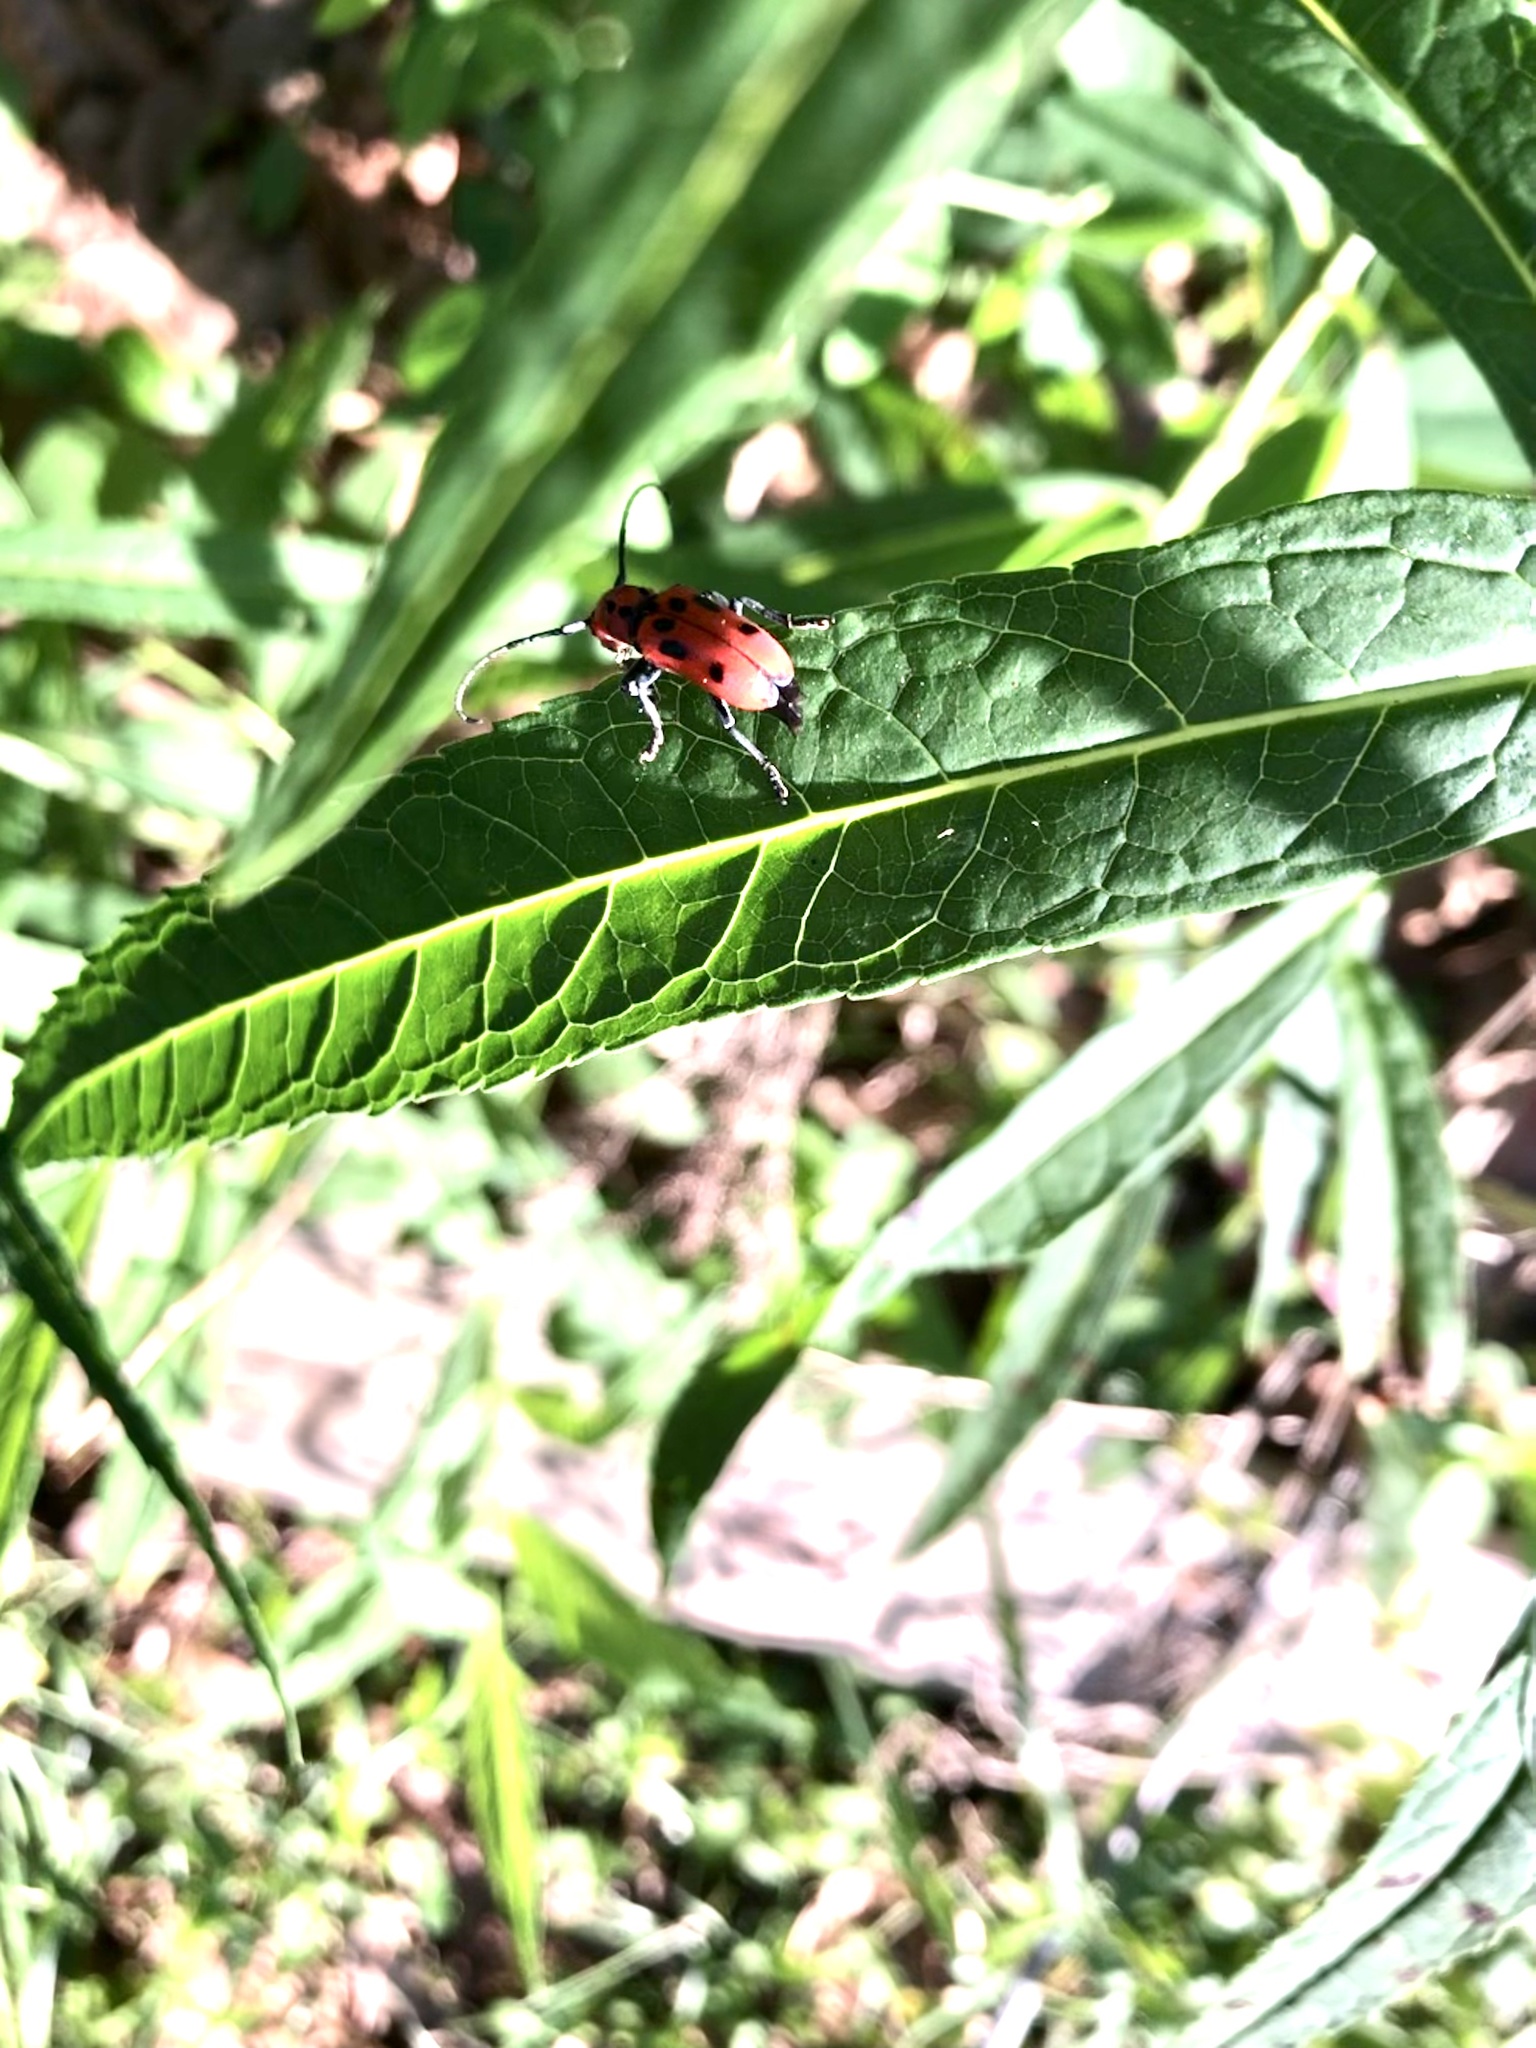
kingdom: Animalia
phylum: Arthropoda
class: Insecta
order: Coleoptera
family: Cerambycidae
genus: Tetraopes
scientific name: Tetraopes tetrophthalmus
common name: Red milkweed beetle
